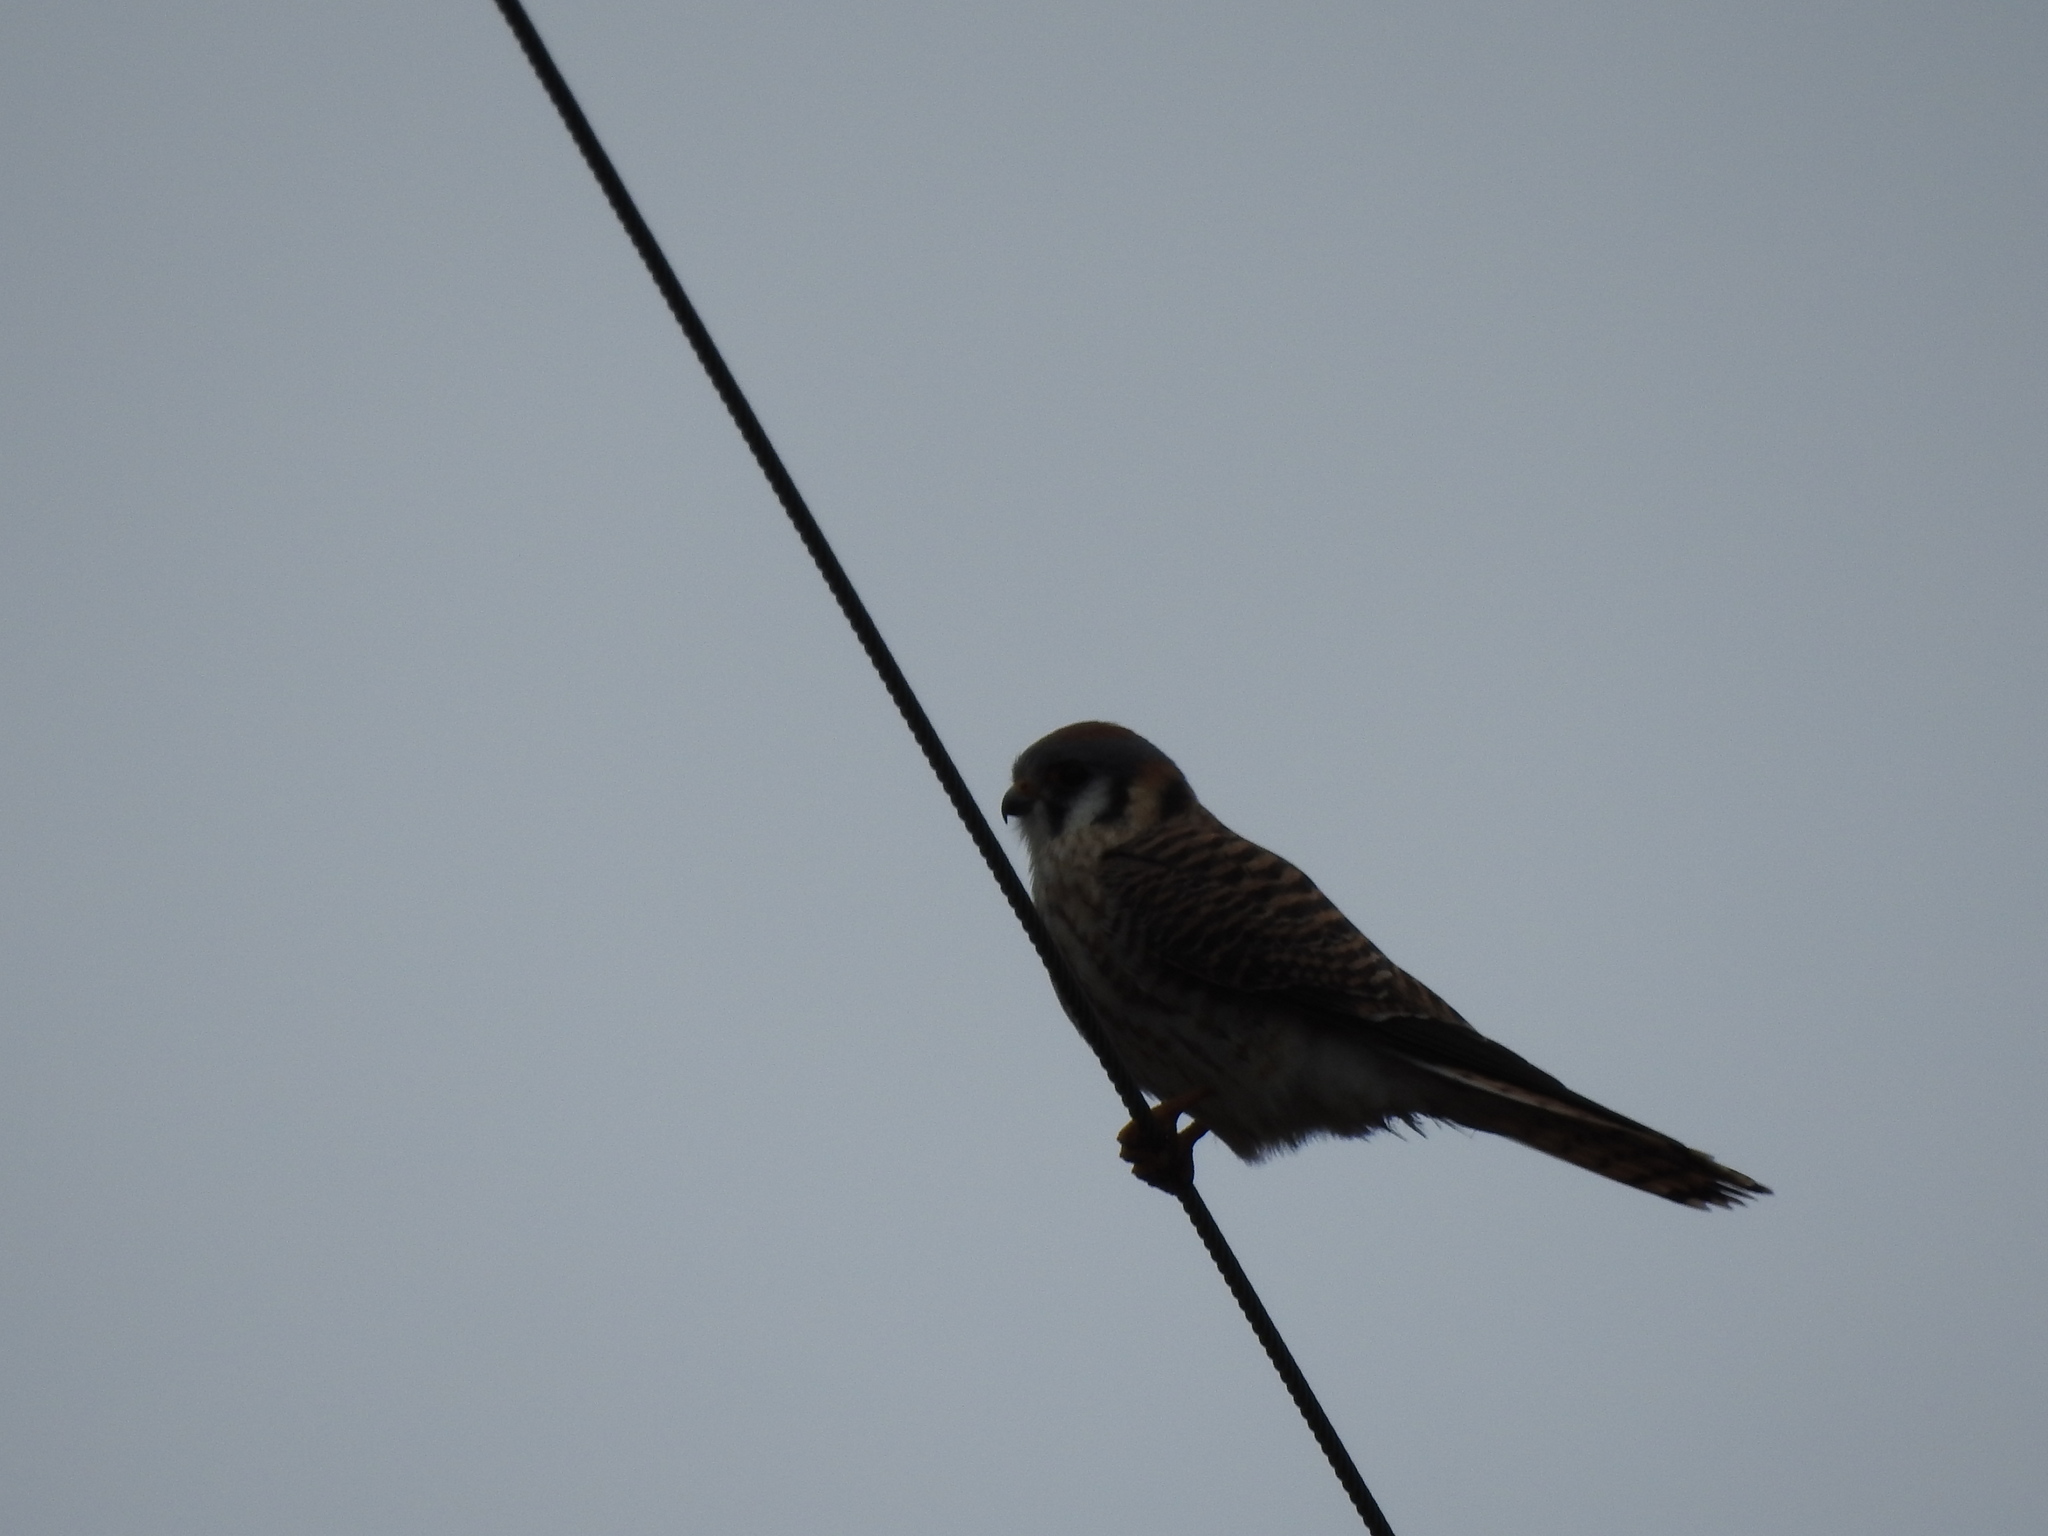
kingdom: Animalia
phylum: Chordata
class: Aves
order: Falconiformes
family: Falconidae
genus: Falco
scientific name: Falco sparverius
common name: American kestrel
